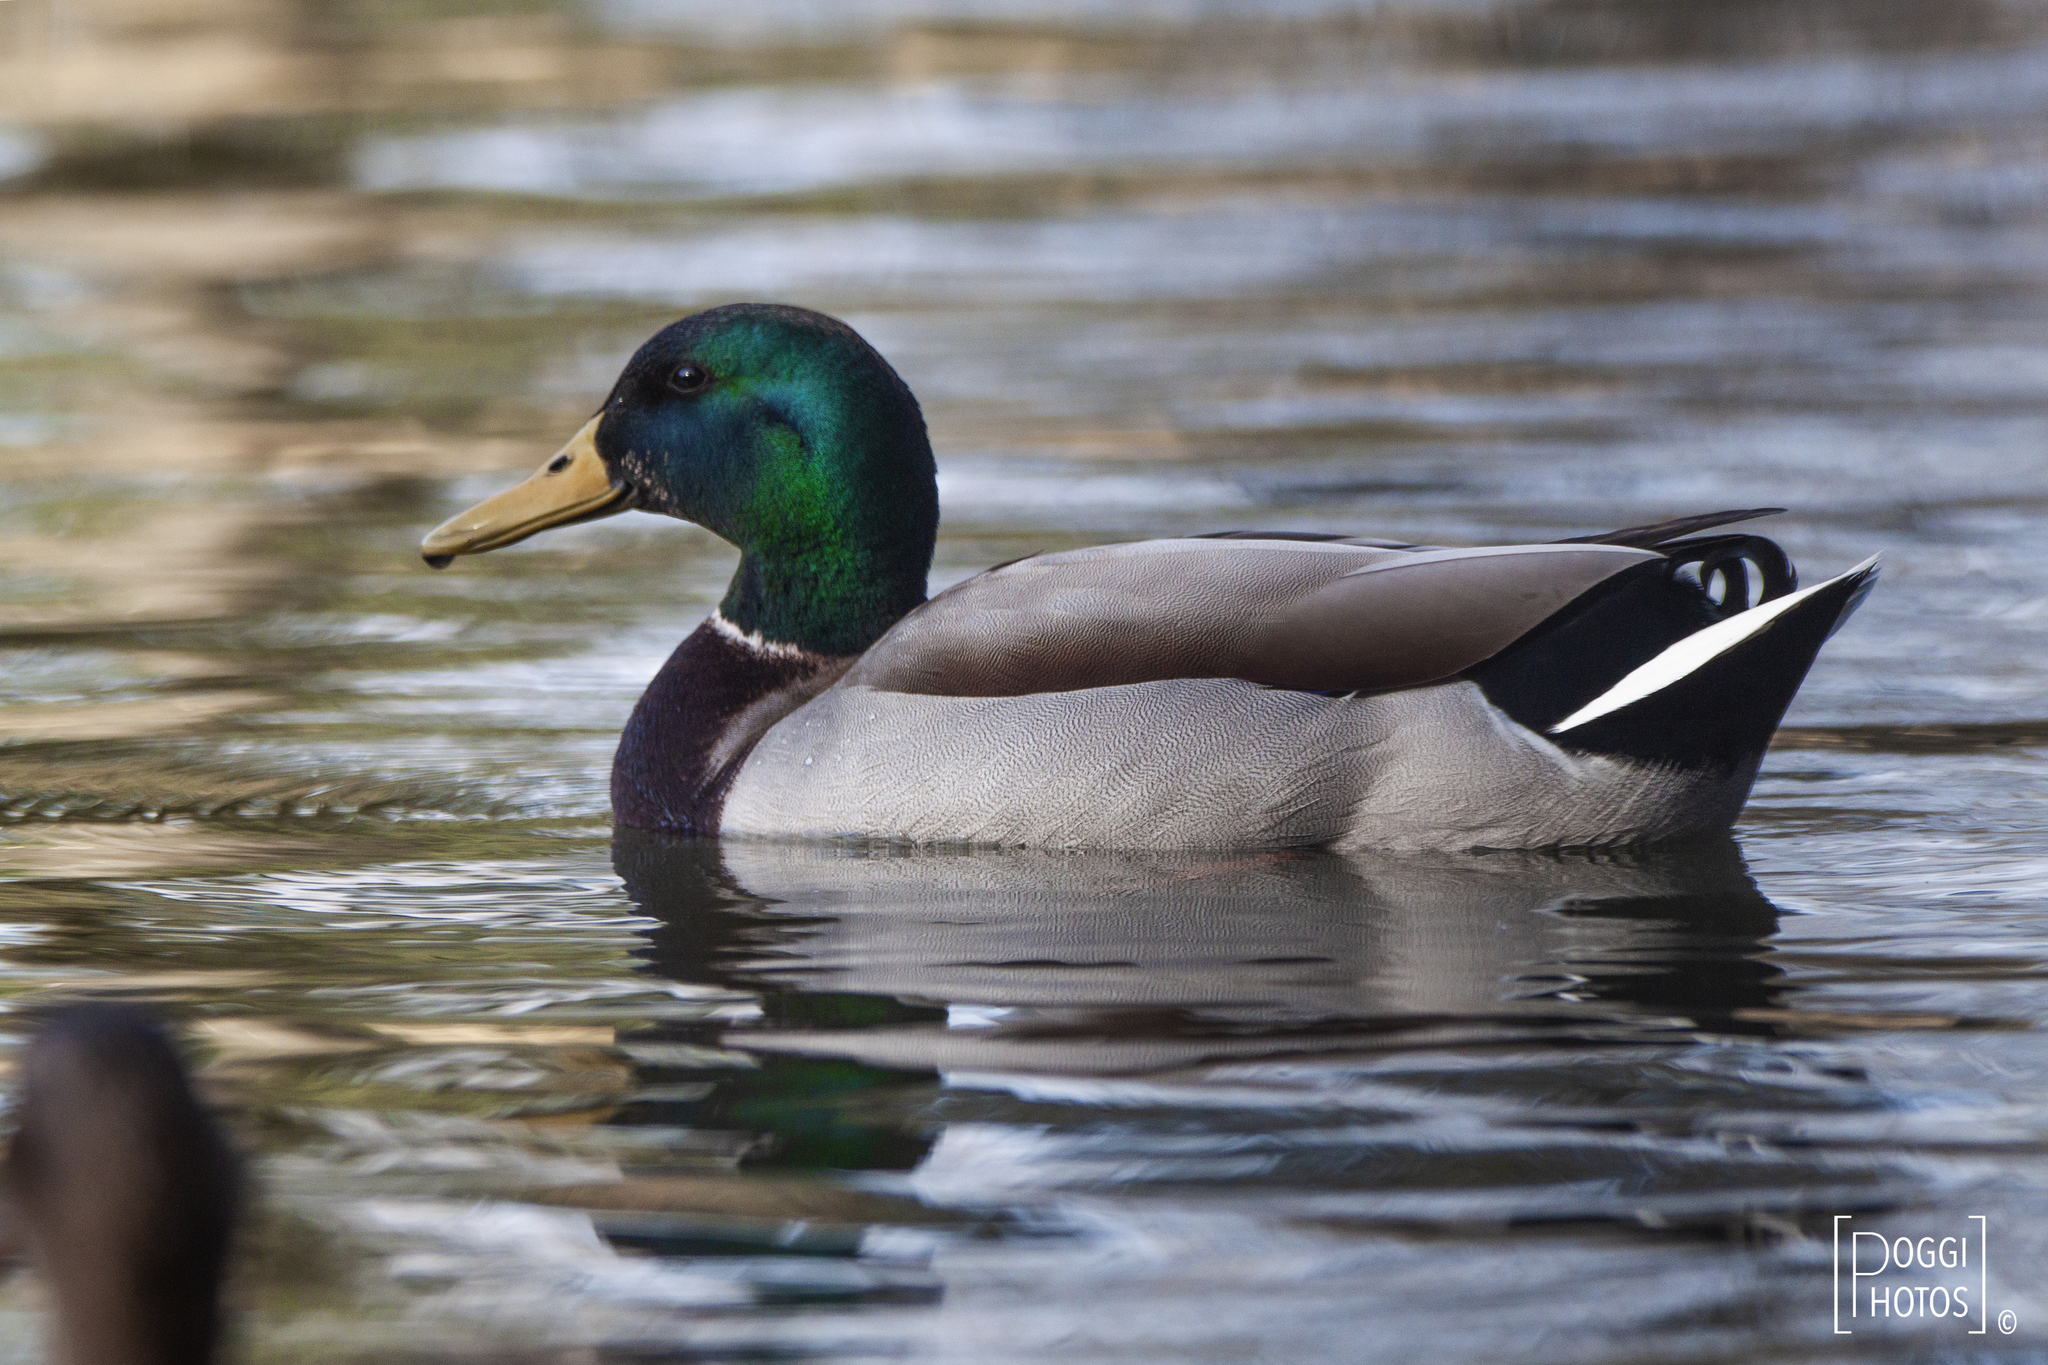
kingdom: Animalia
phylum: Chordata
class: Aves
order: Anseriformes
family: Anatidae
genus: Anas
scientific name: Anas platyrhynchos
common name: Mallard
